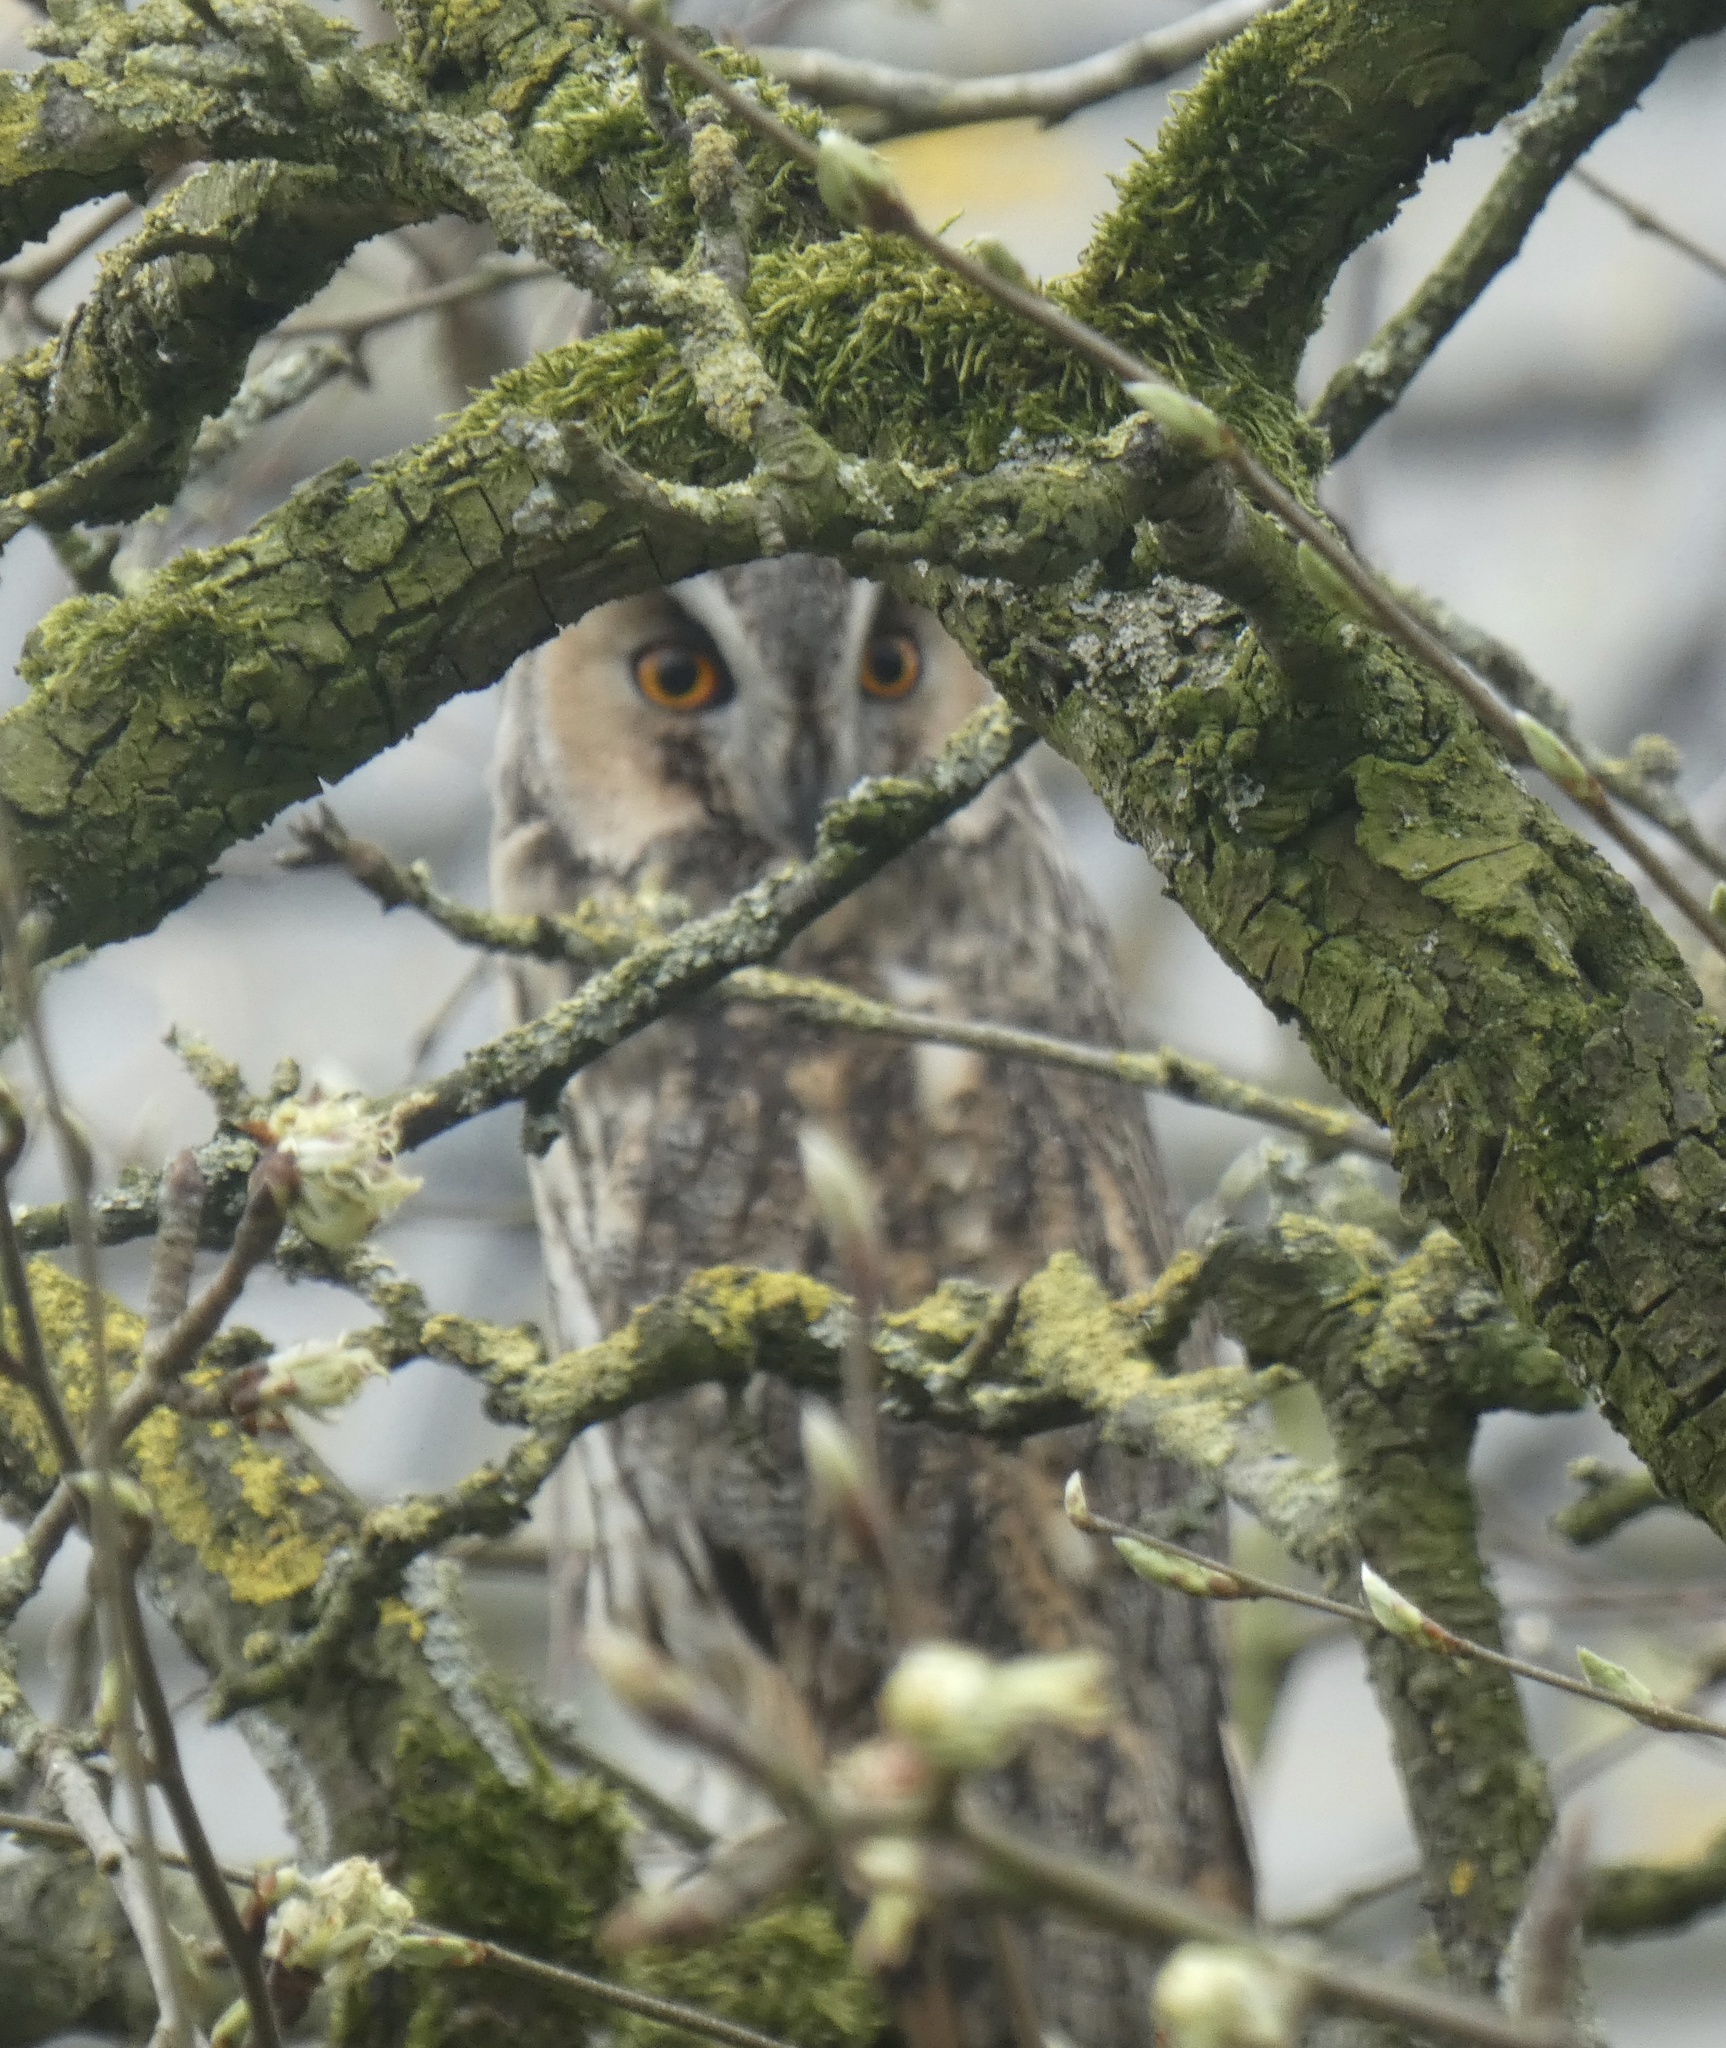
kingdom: Animalia
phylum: Chordata
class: Aves
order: Strigiformes
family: Strigidae
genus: Asio
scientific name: Asio otus
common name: Long-eared owl
